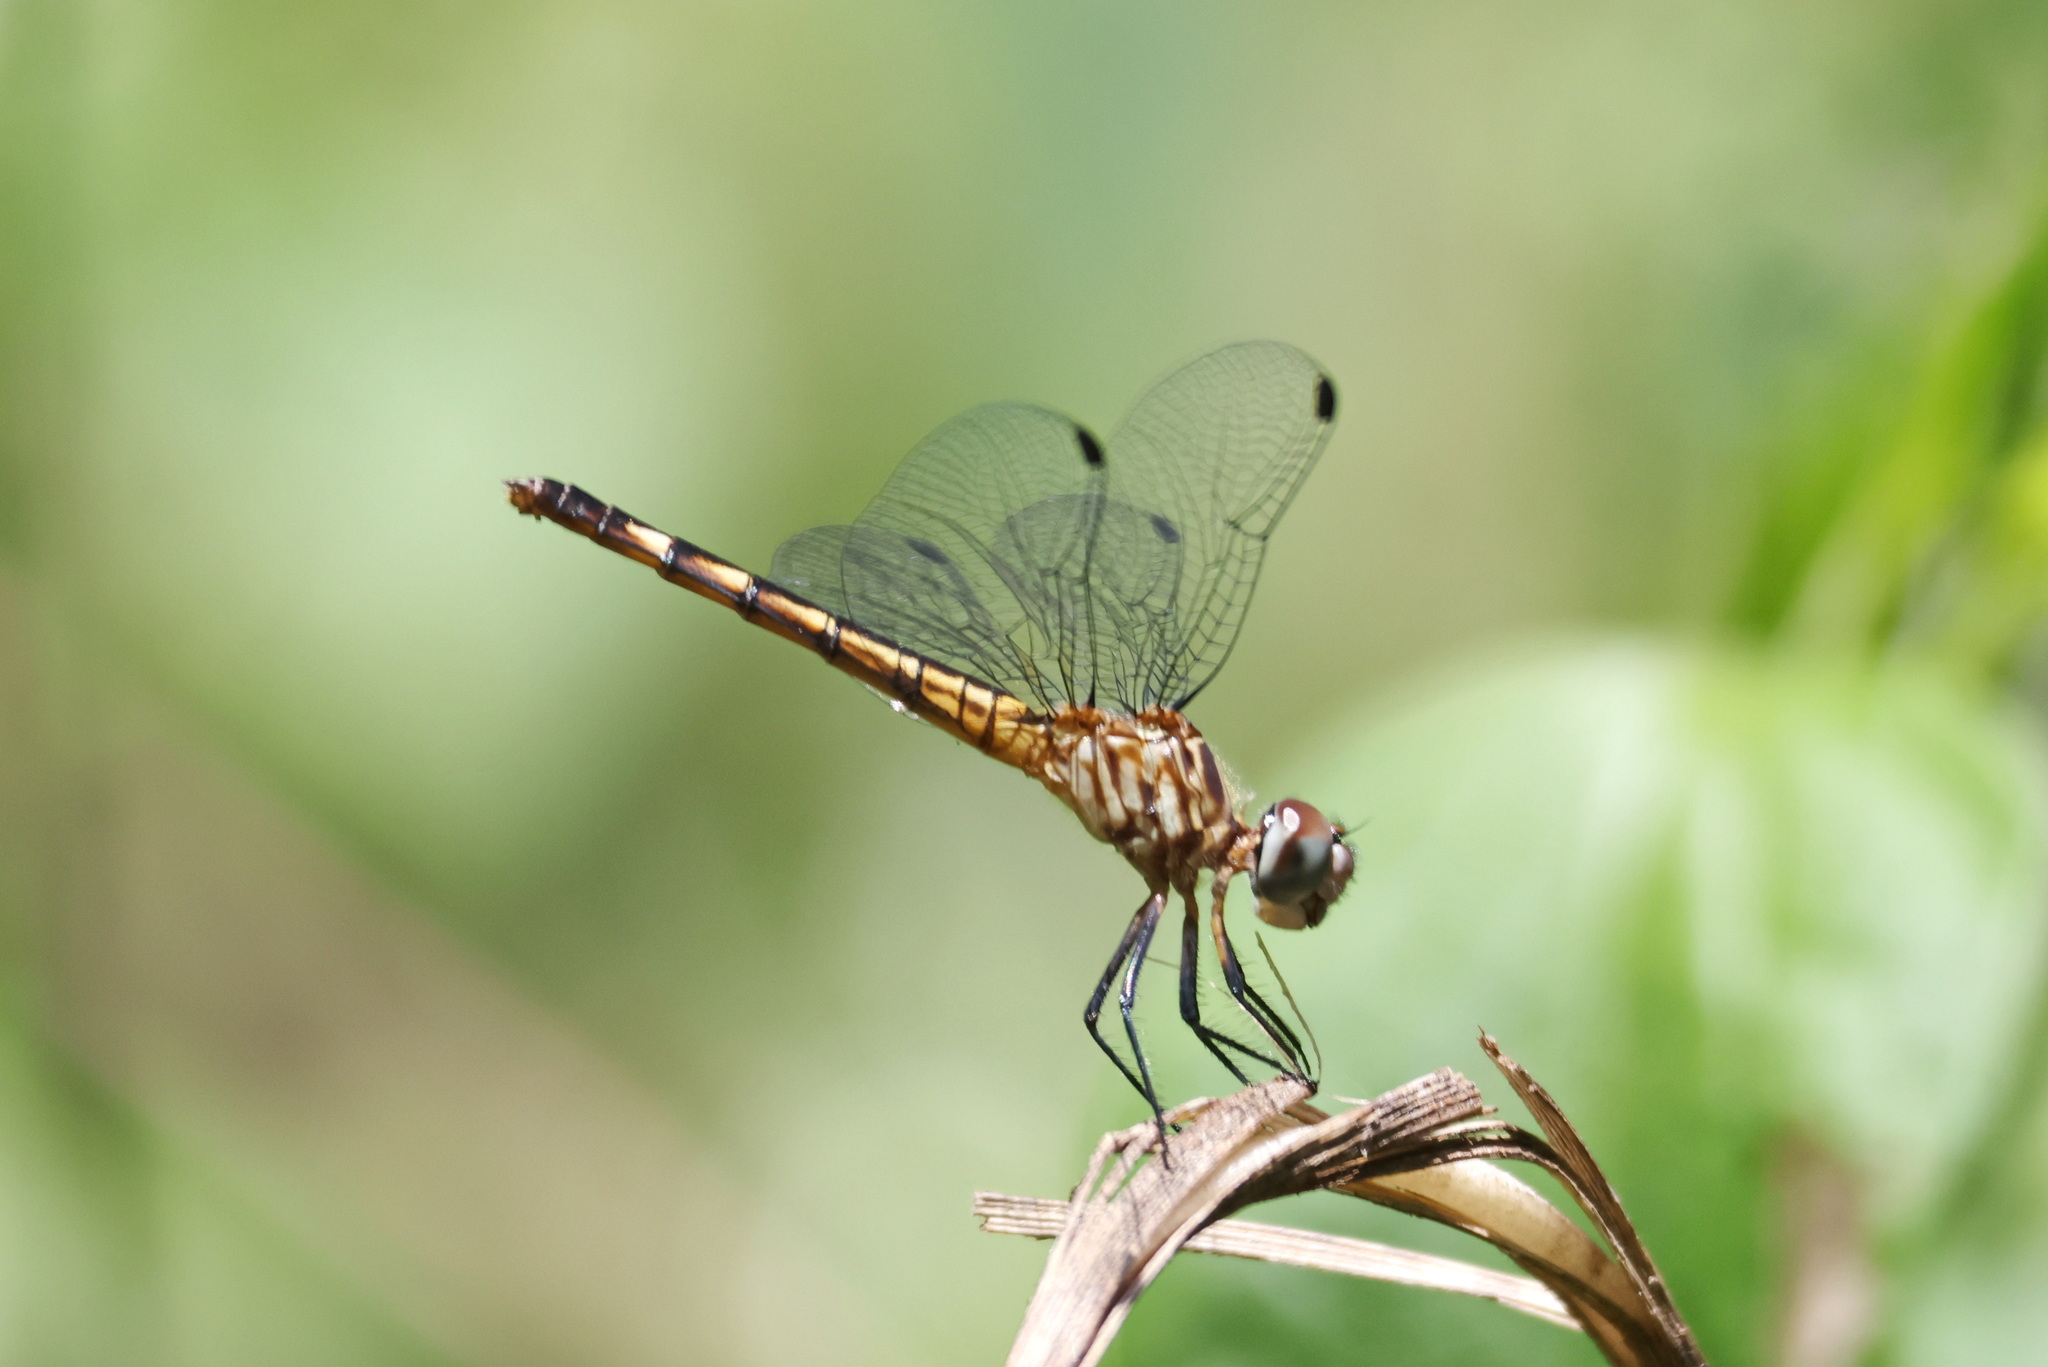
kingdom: Animalia
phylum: Arthropoda
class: Insecta
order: Odonata
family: Libellulidae
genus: Micrathyria
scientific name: Micrathyria aequalis
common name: Spot-tailed dasher
